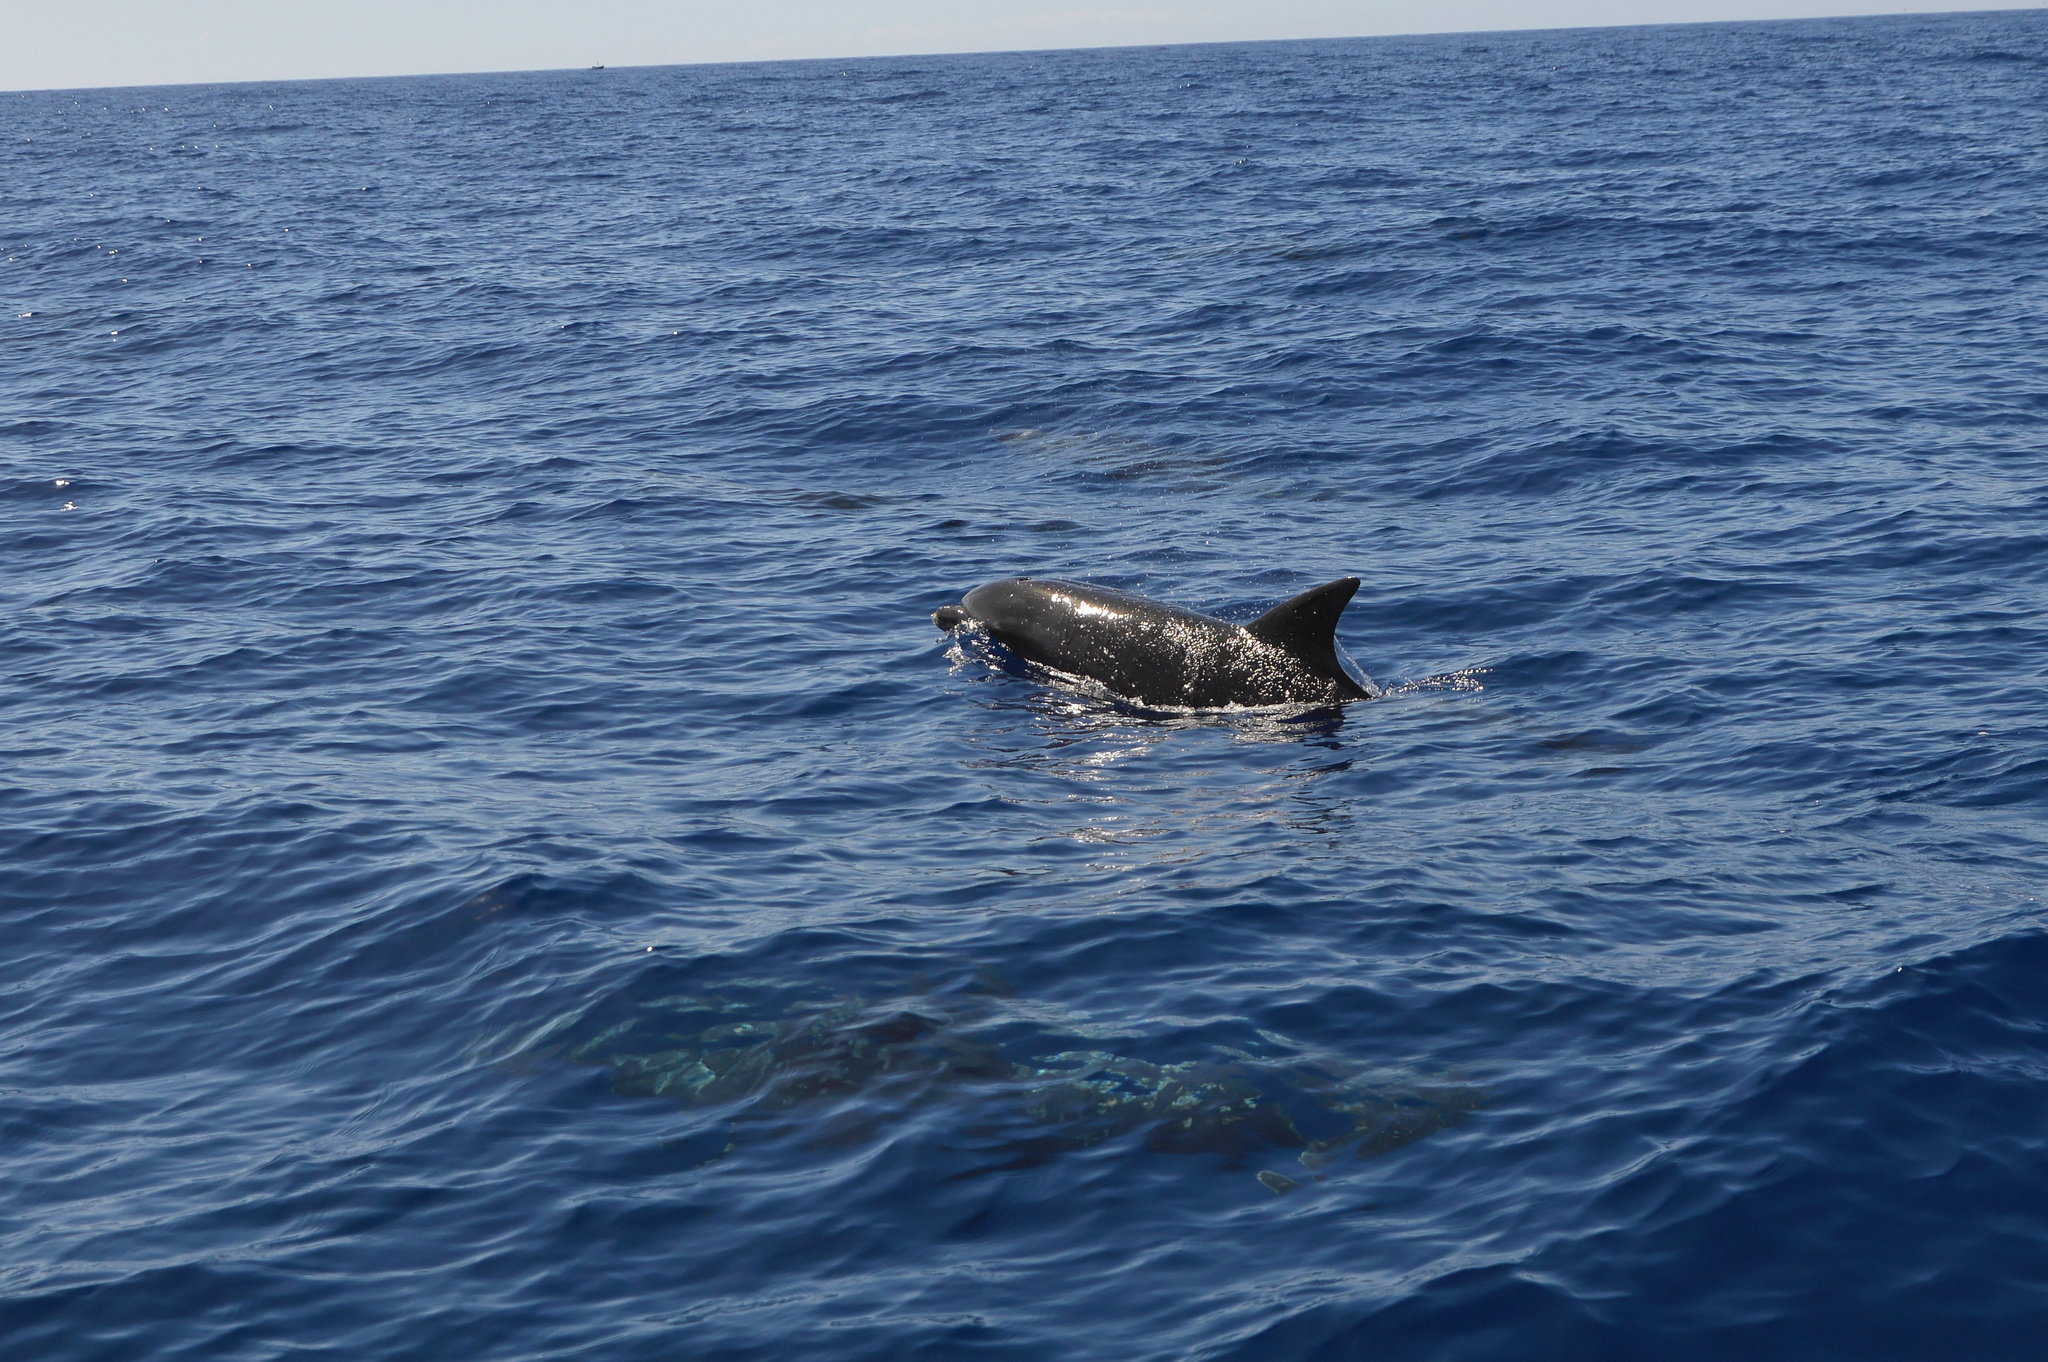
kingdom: Animalia
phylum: Chordata
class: Mammalia
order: Cetacea
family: Delphinidae
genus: Tursiops
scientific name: Tursiops truncatus
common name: Bottlenose dolphin
